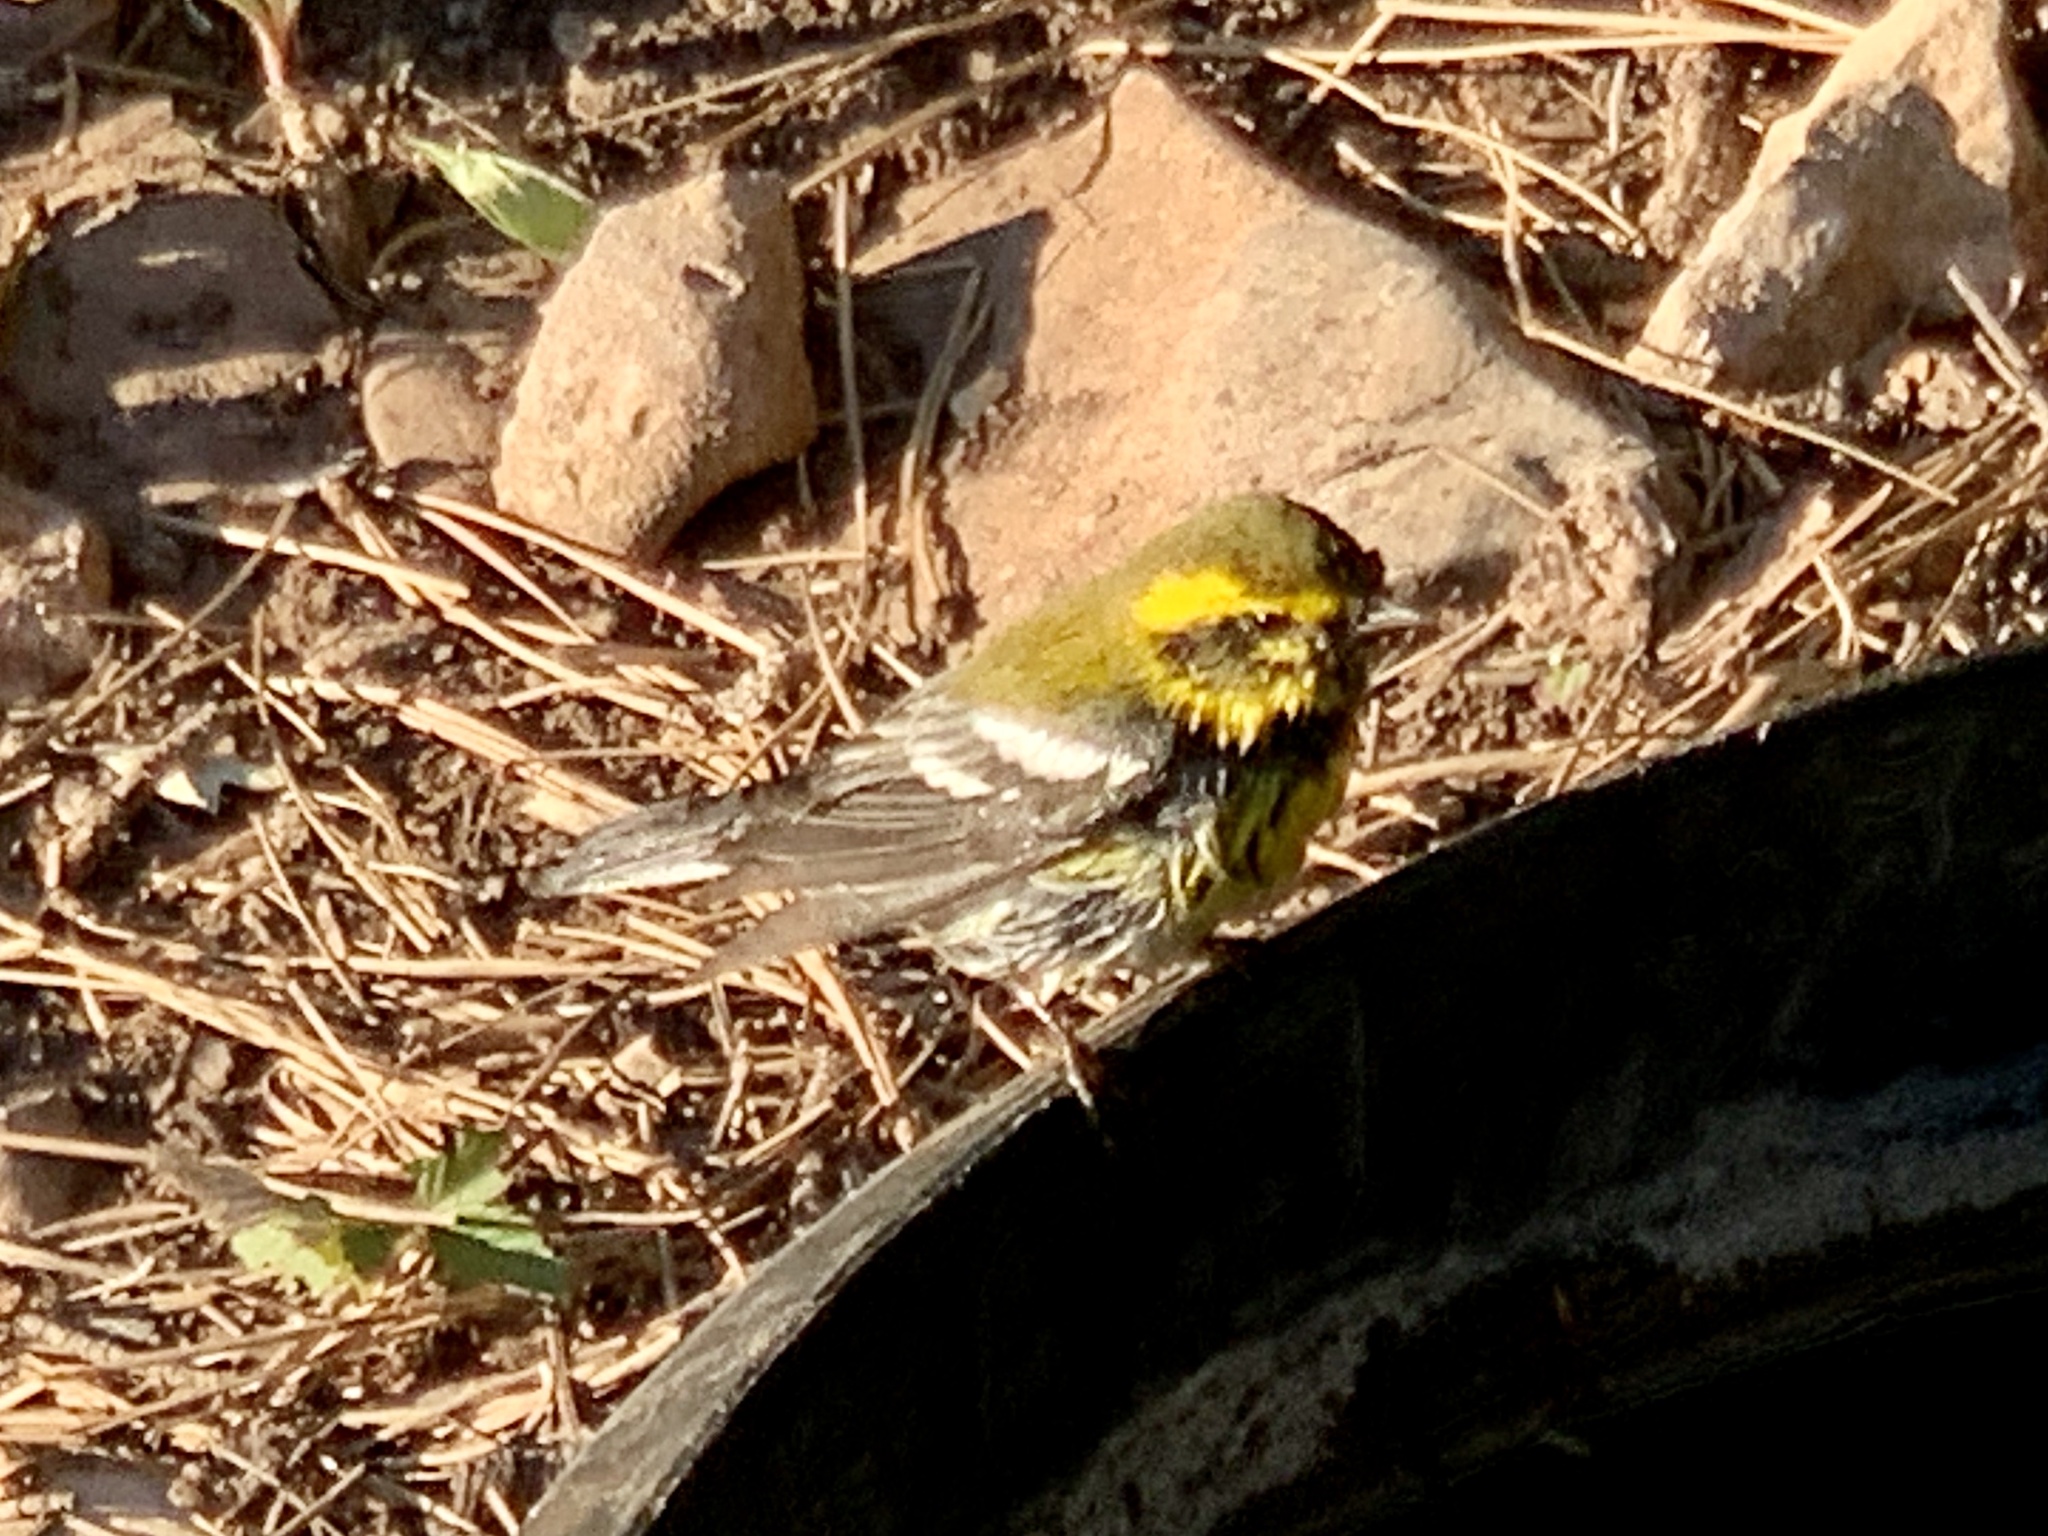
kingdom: Animalia
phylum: Chordata
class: Aves
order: Passeriformes
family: Parulidae
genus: Setophaga
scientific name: Setophaga townsendi
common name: Townsend's warbler
